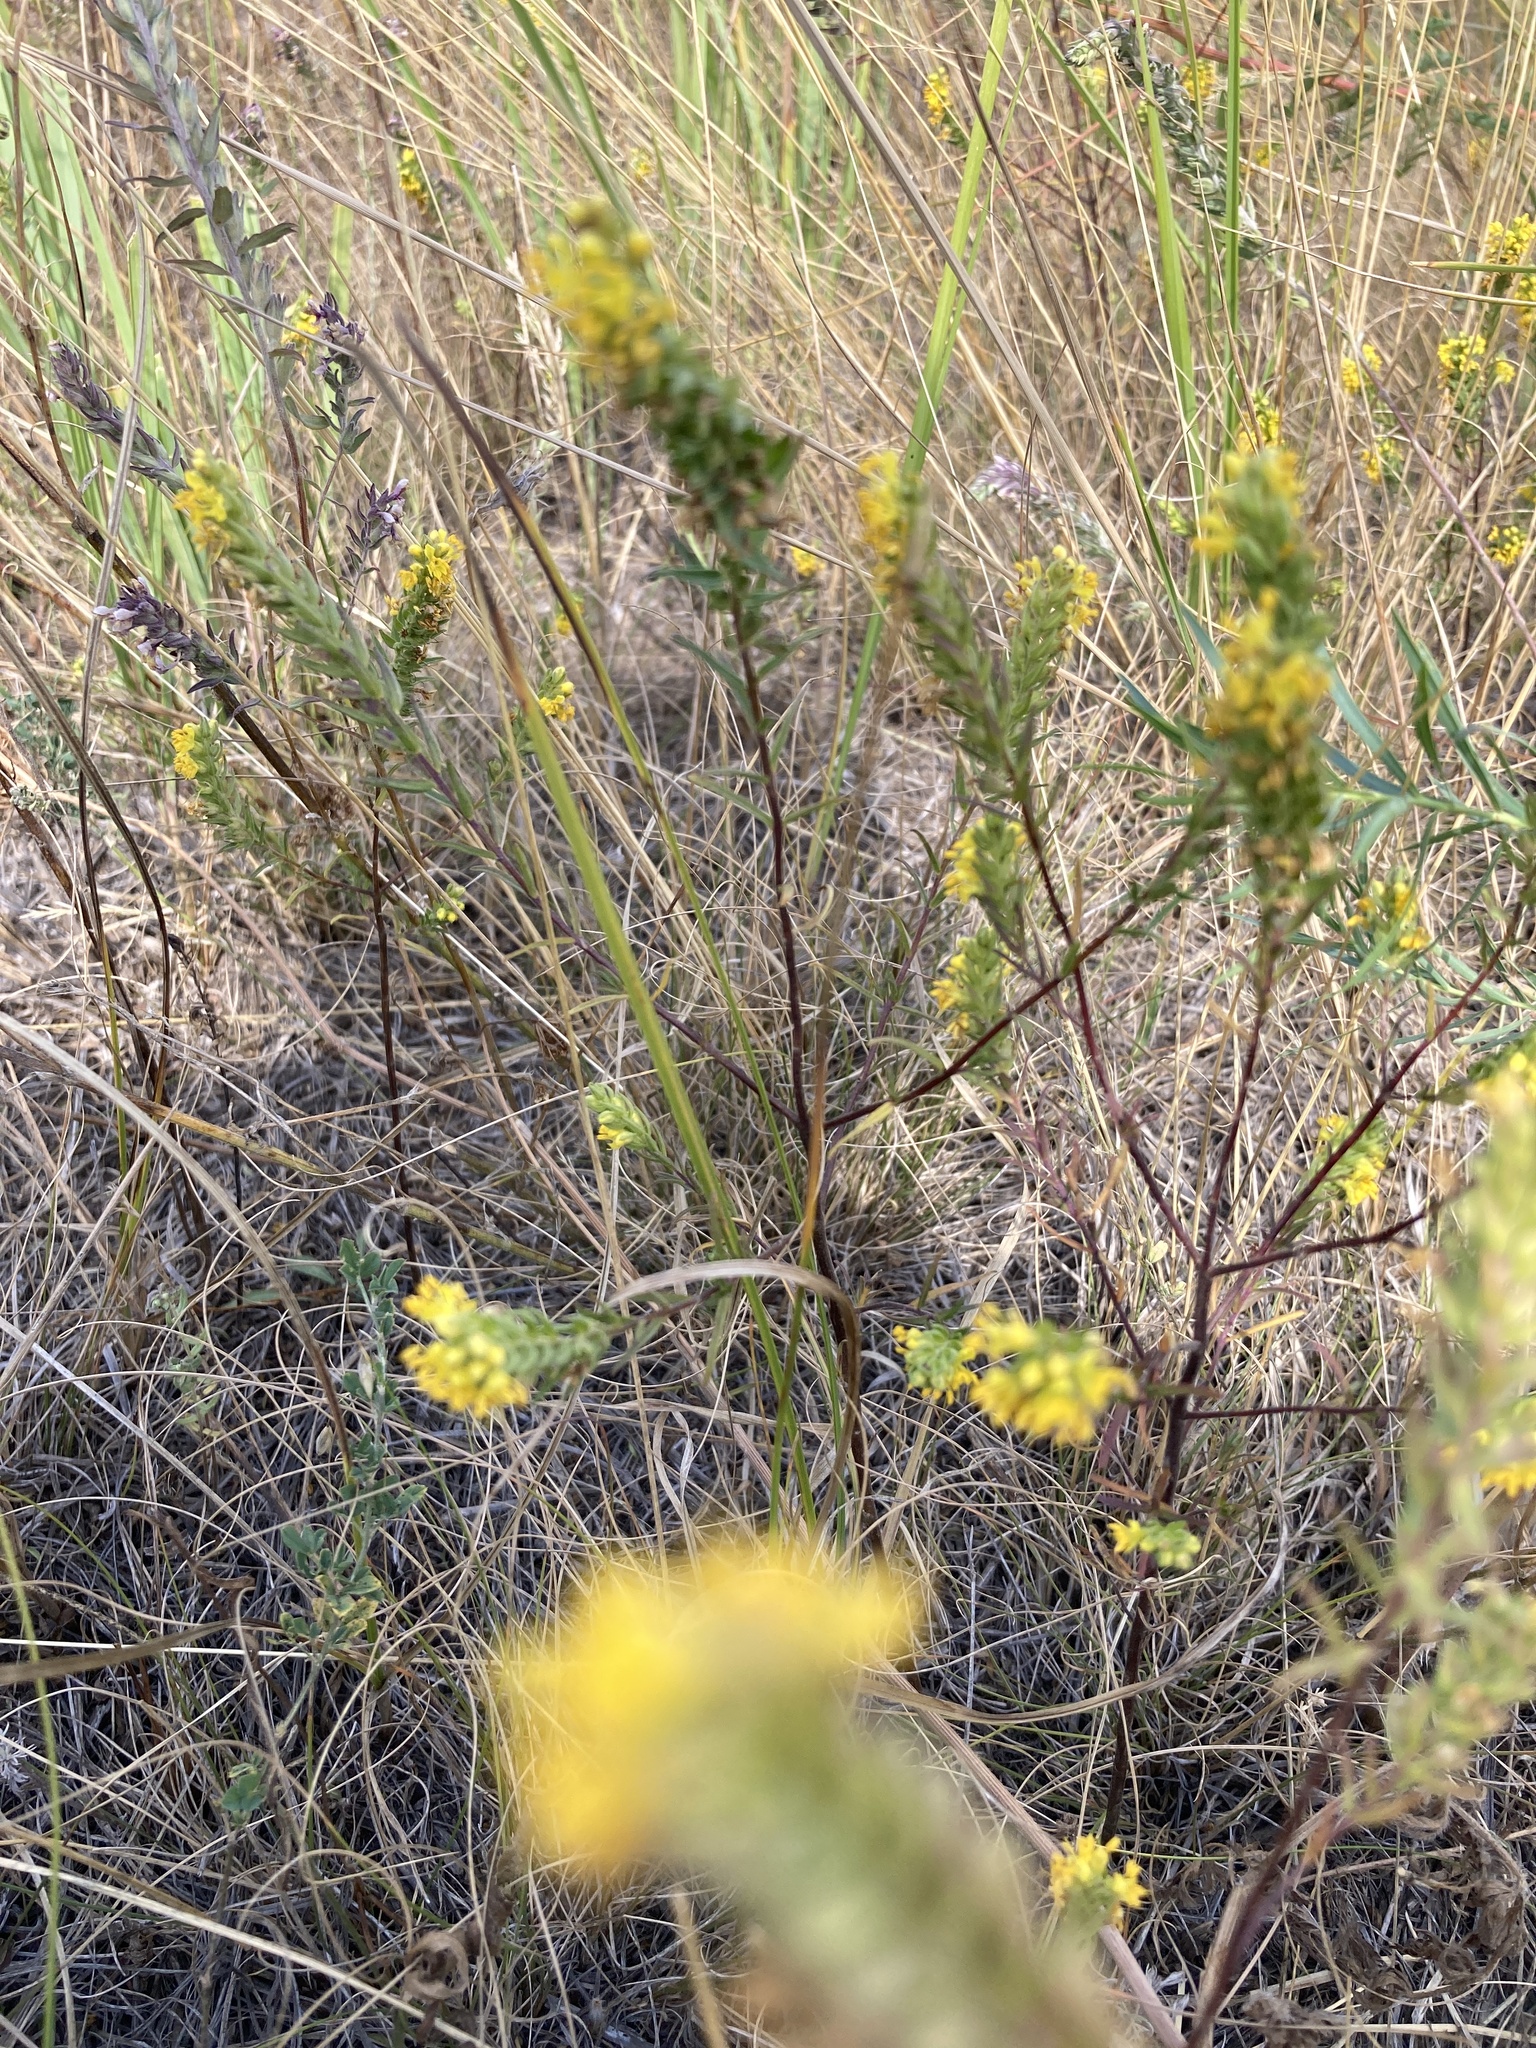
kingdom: Plantae
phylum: Tracheophyta
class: Magnoliopsida
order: Lamiales
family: Orobanchaceae
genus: Odontites
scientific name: Odontites luteus
